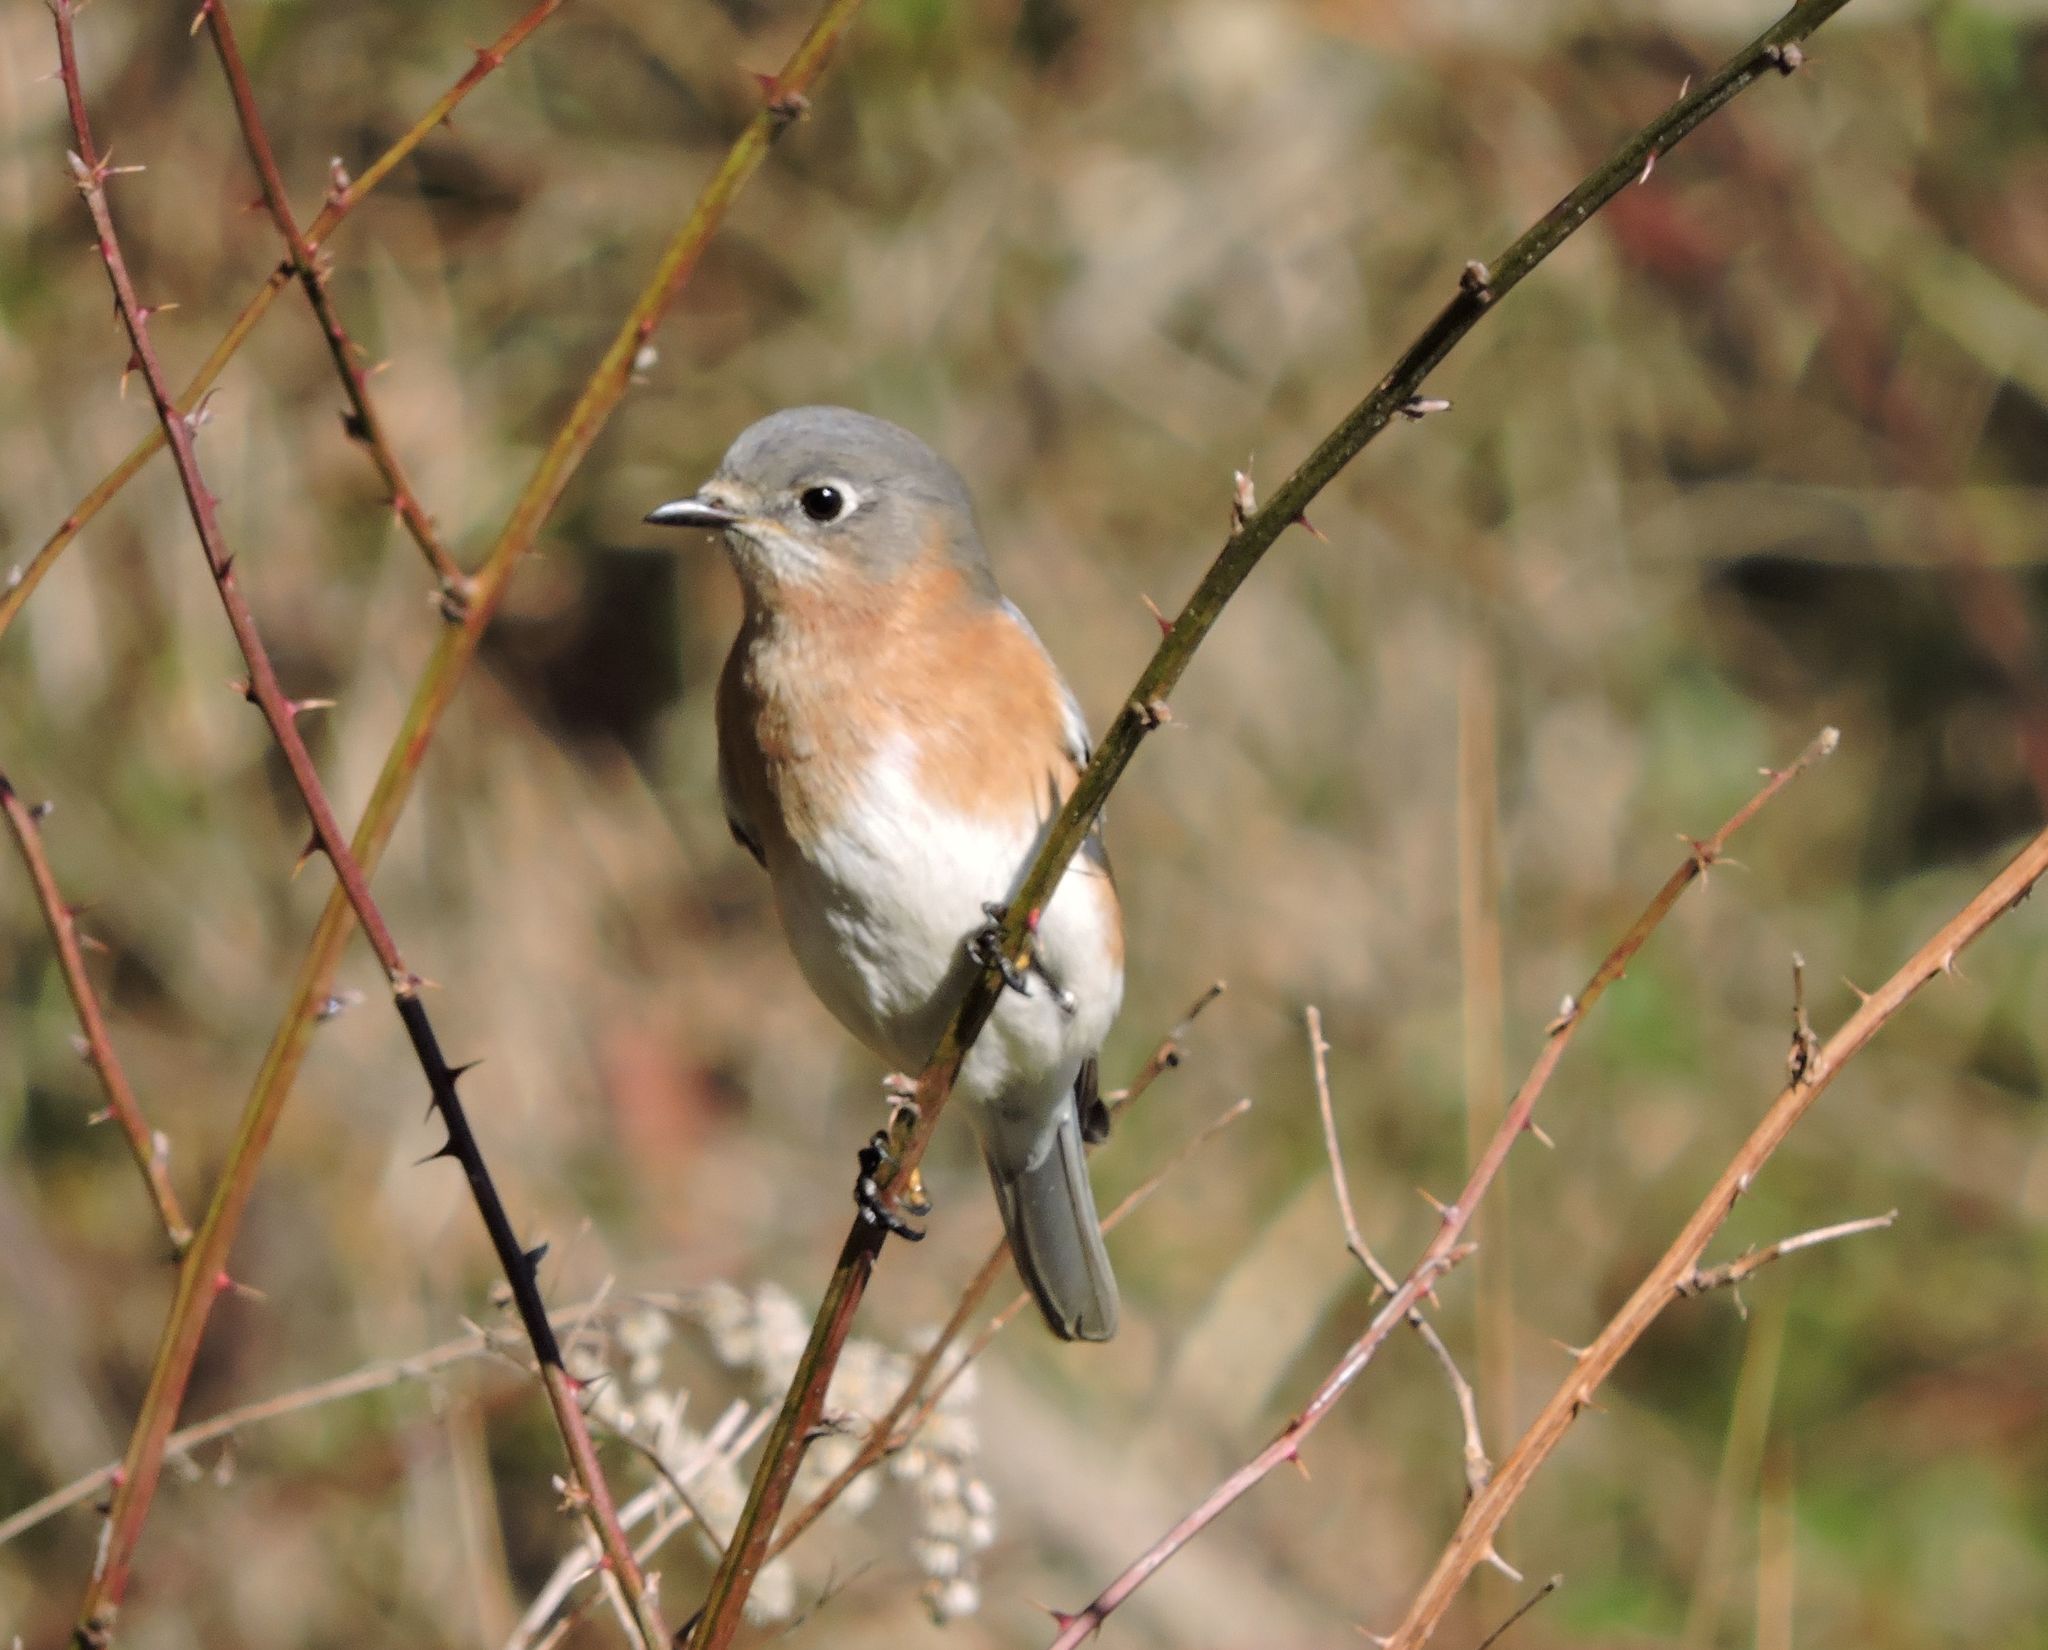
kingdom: Animalia
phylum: Chordata
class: Aves
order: Passeriformes
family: Turdidae
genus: Sialia
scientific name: Sialia sialis
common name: Eastern bluebird
